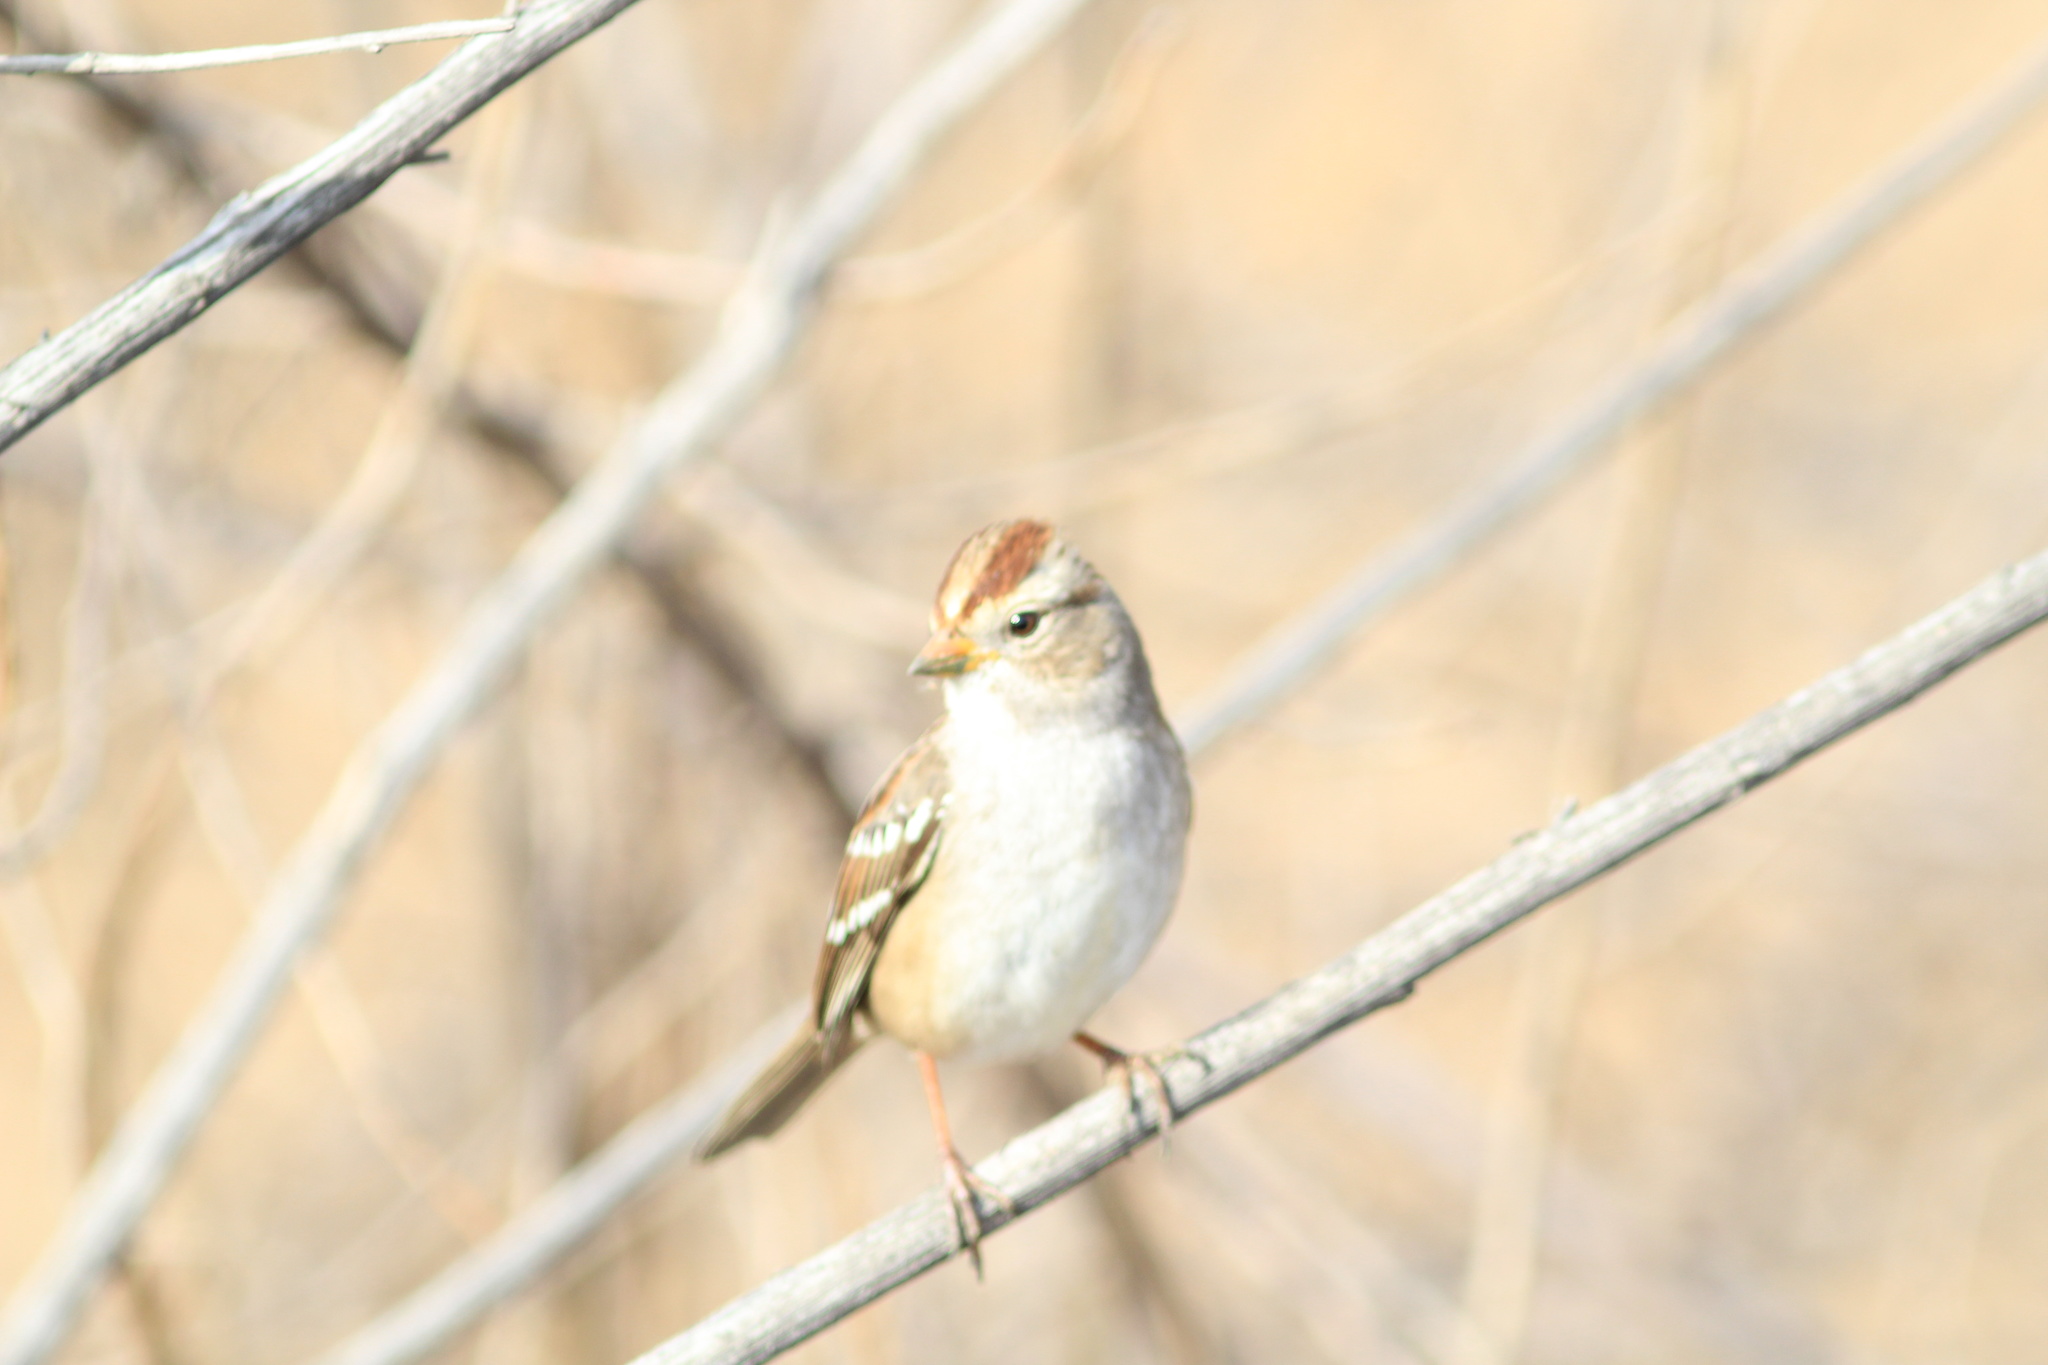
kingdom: Animalia
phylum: Chordata
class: Aves
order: Passeriformes
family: Passerellidae
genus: Zonotrichia
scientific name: Zonotrichia leucophrys
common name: White-crowned sparrow
